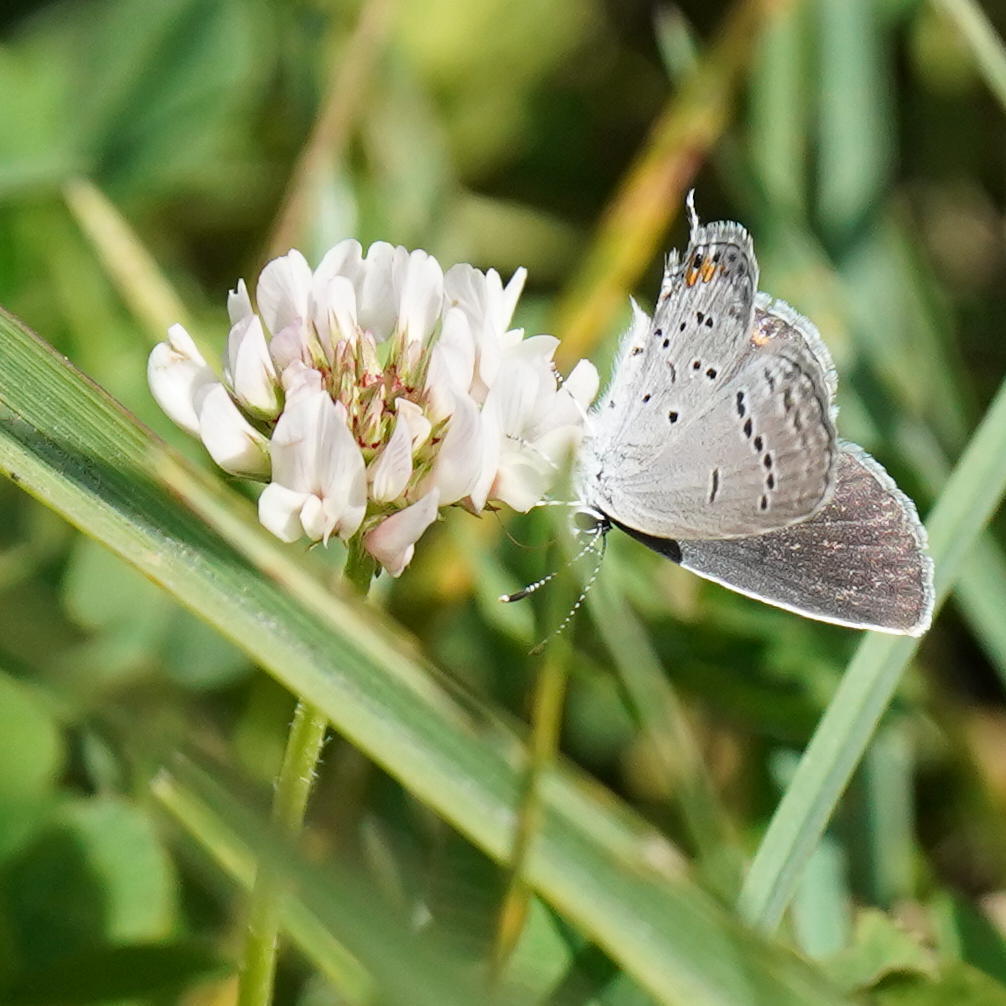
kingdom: Animalia
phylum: Arthropoda
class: Insecta
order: Lepidoptera
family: Lycaenidae
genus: Elkalyce
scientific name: Elkalyce comyntas
